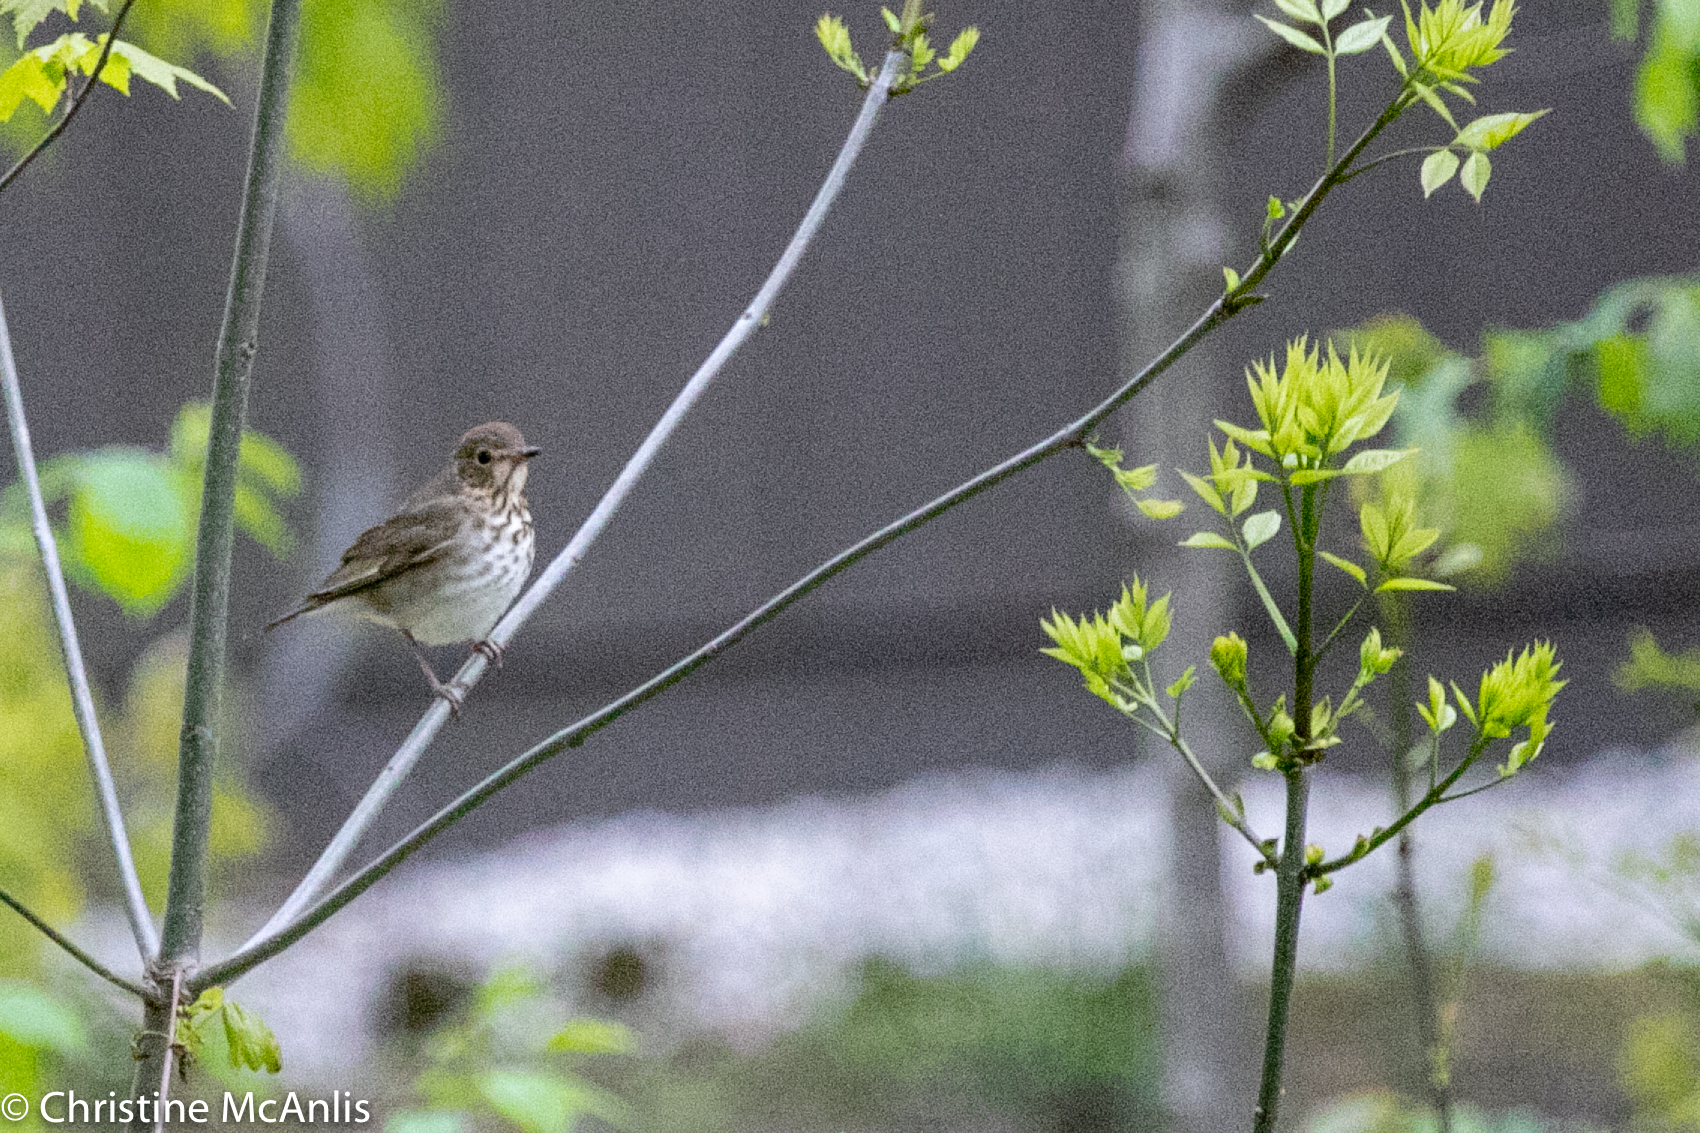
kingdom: Animalia
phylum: Chordata
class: Aves
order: Passeriformes
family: Turdidae
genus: Catharus
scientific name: Catharus ustulatus
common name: Swainson's thrush
